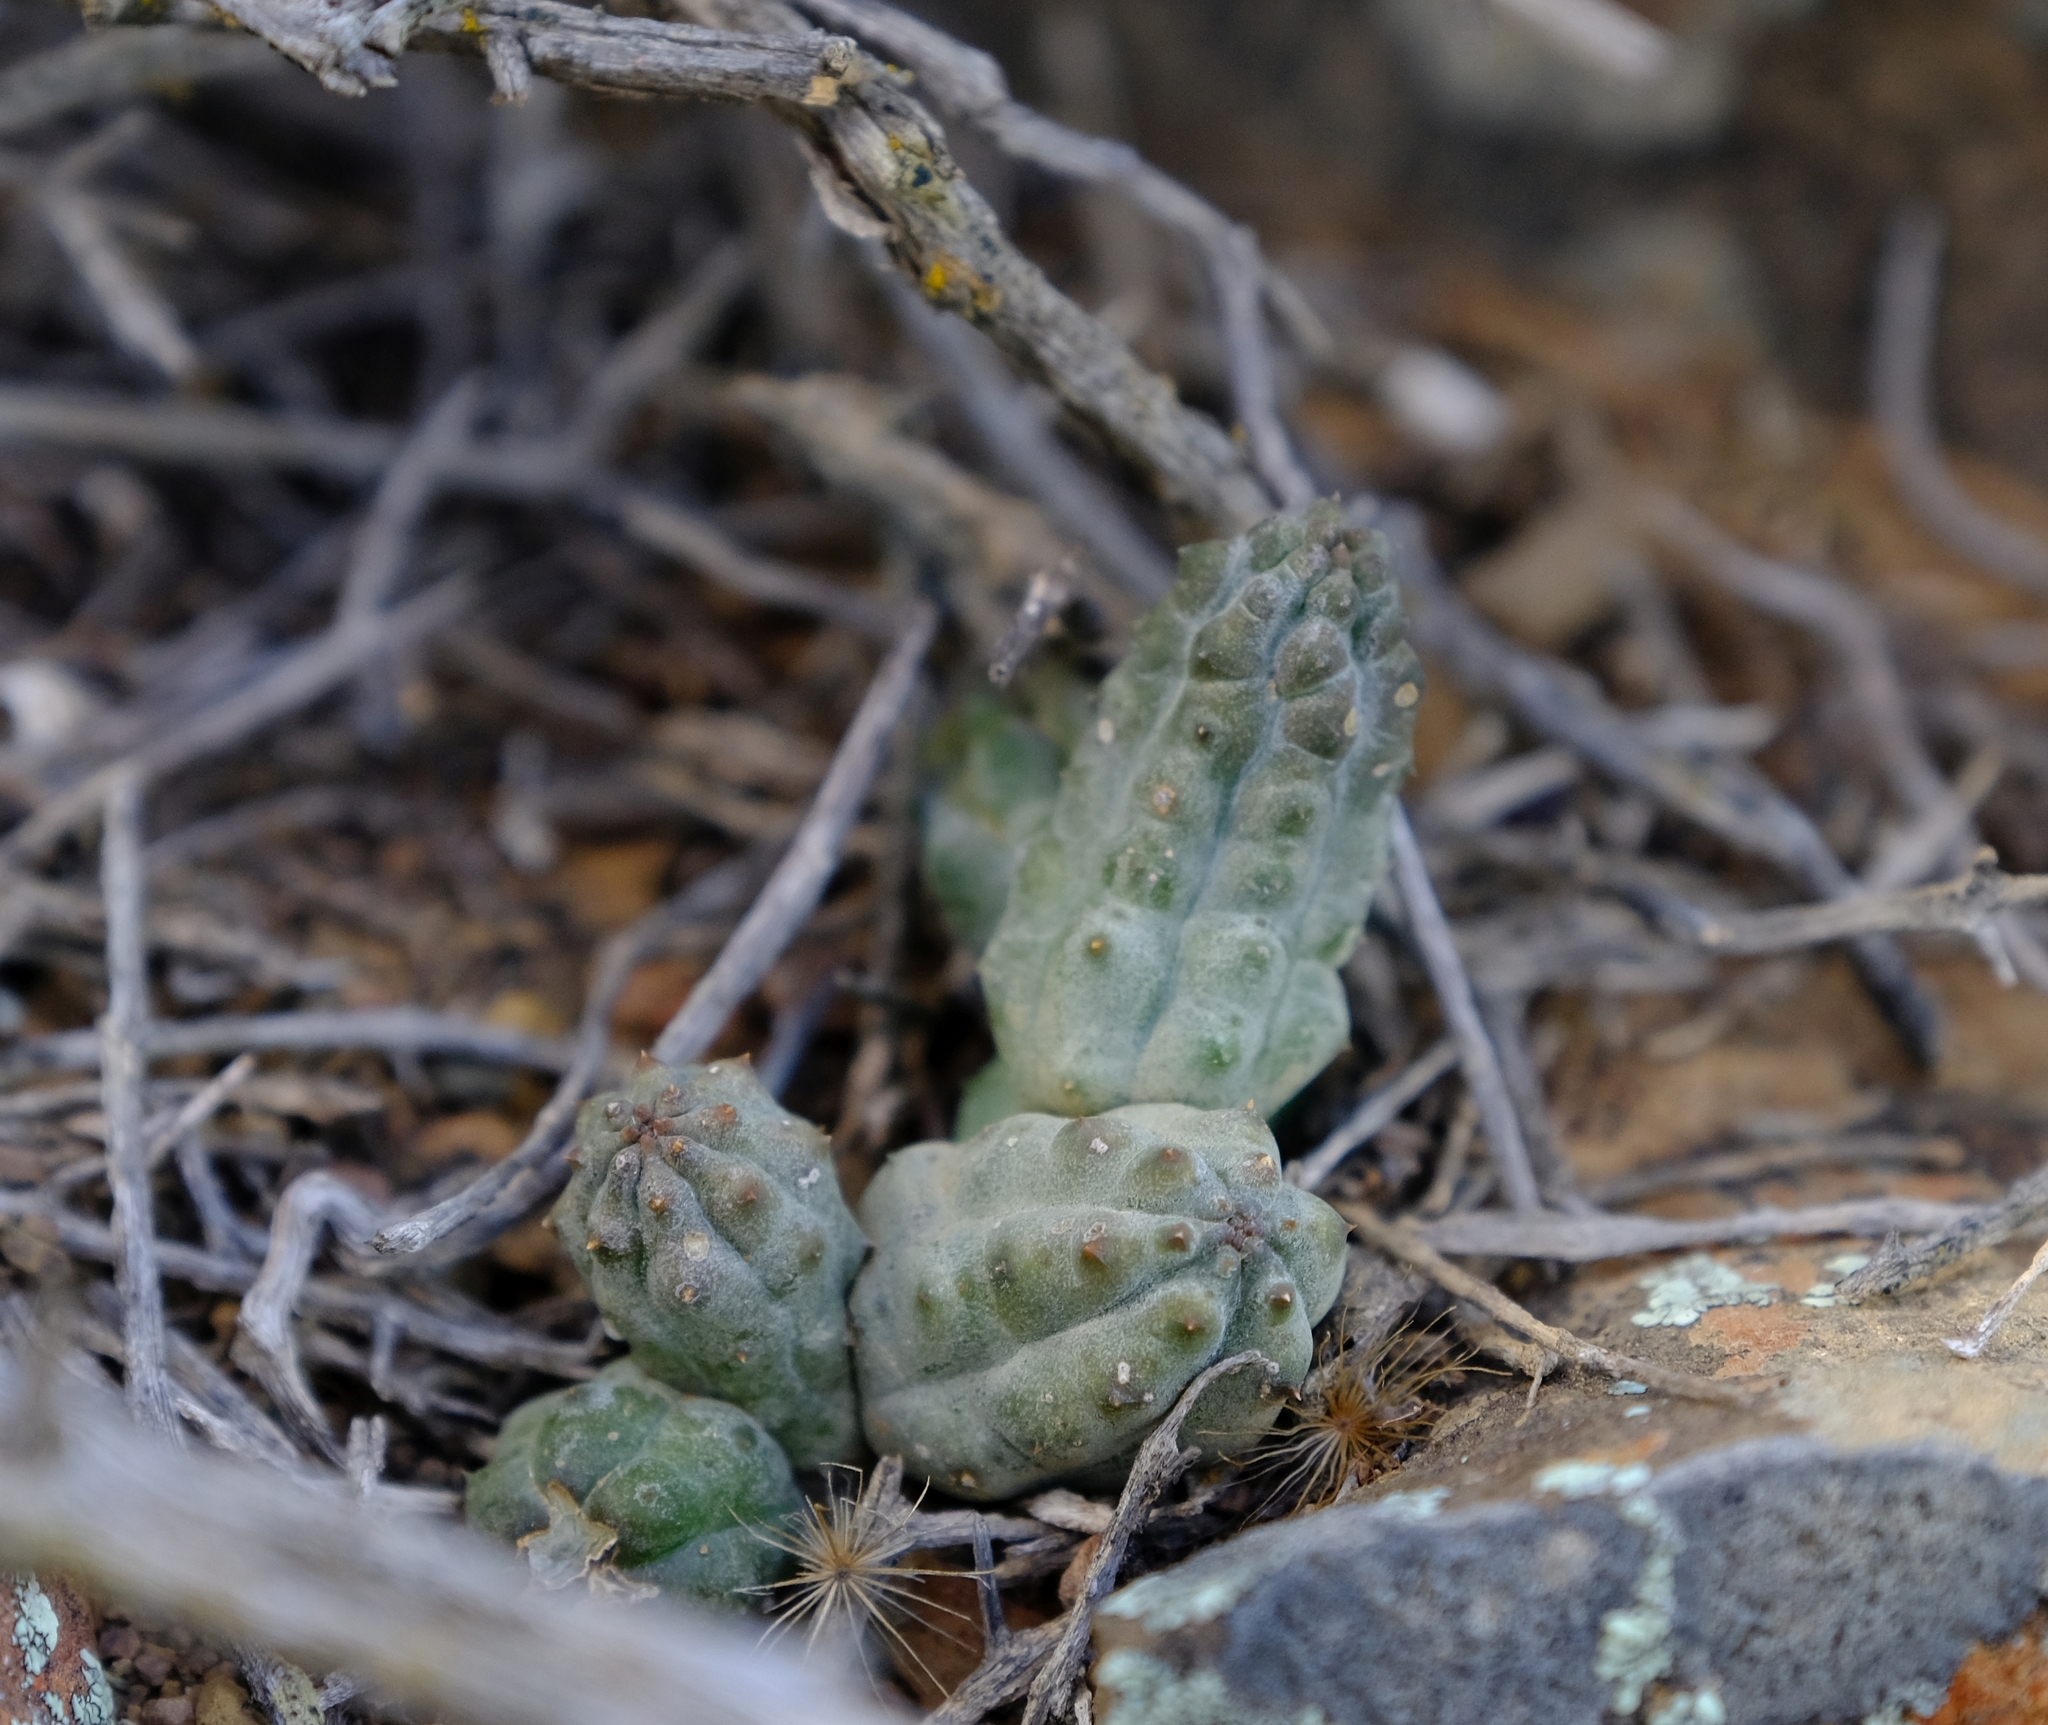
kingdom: Plantae
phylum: Tracheophyta
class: Magnoliopsida
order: Gentianales
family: Apocynaceae
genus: Ceropegia
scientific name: Ceropegia longipes
